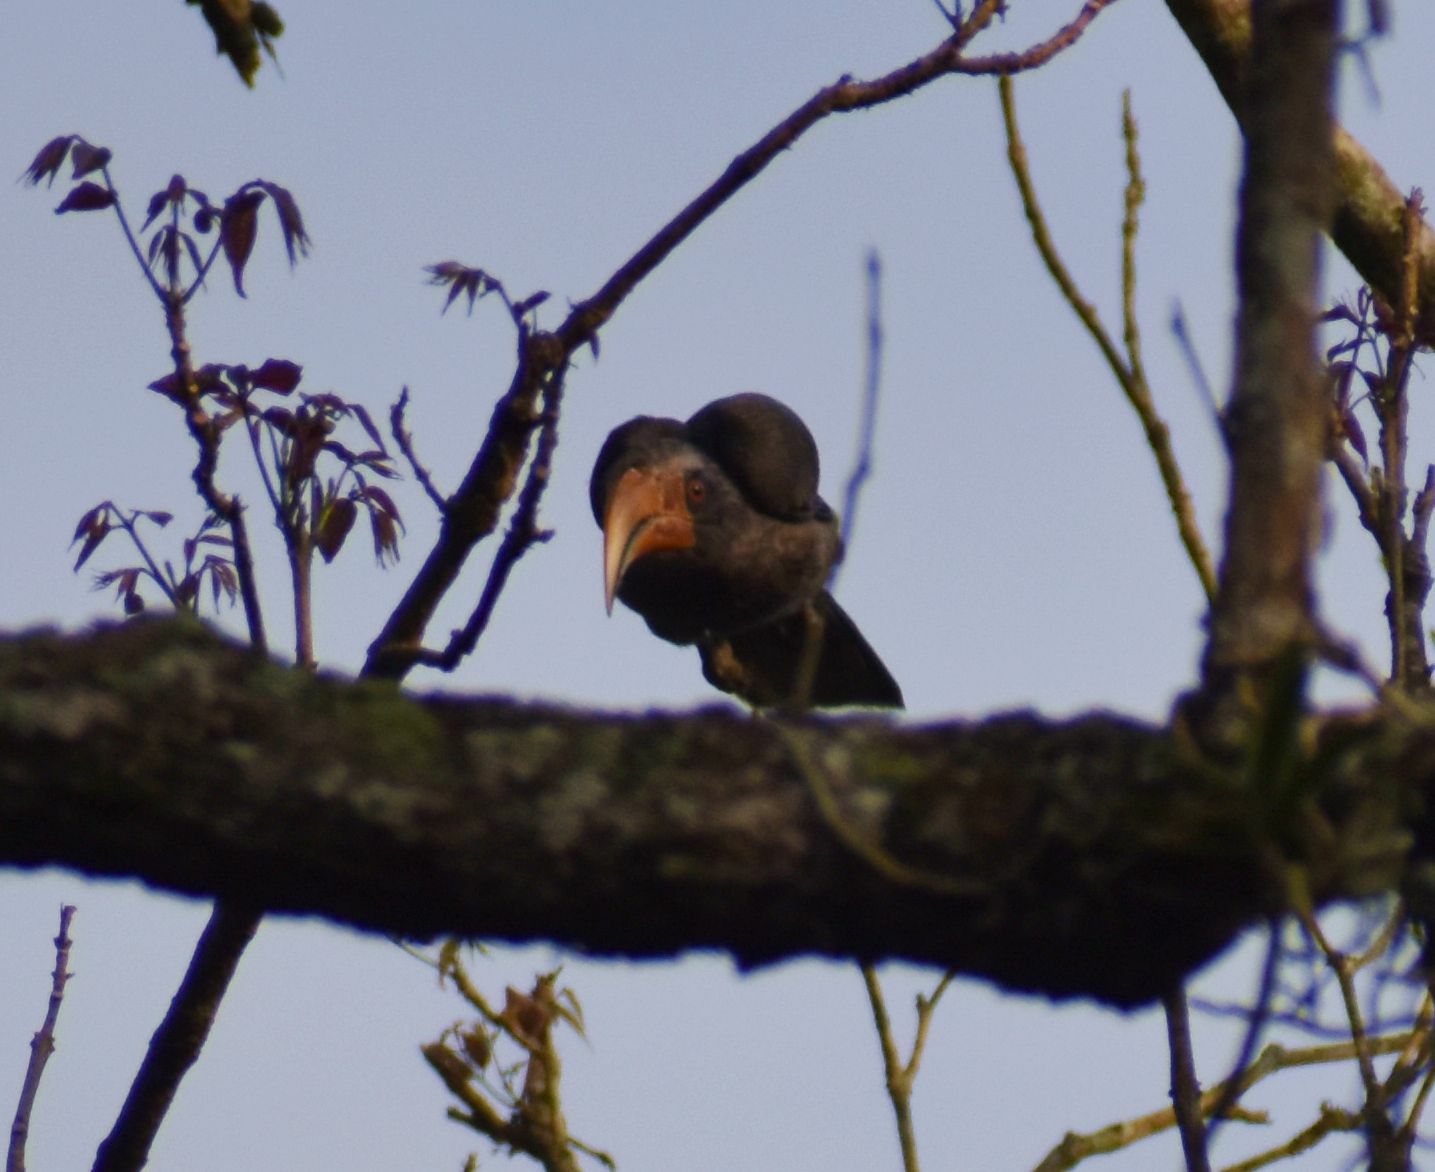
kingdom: Animalia
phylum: Chordata
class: Aves
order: Bucerotiformes
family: Bucerotidae
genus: Ocyceros
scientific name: Ocyceros griseus
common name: Malabar grey hornbill
